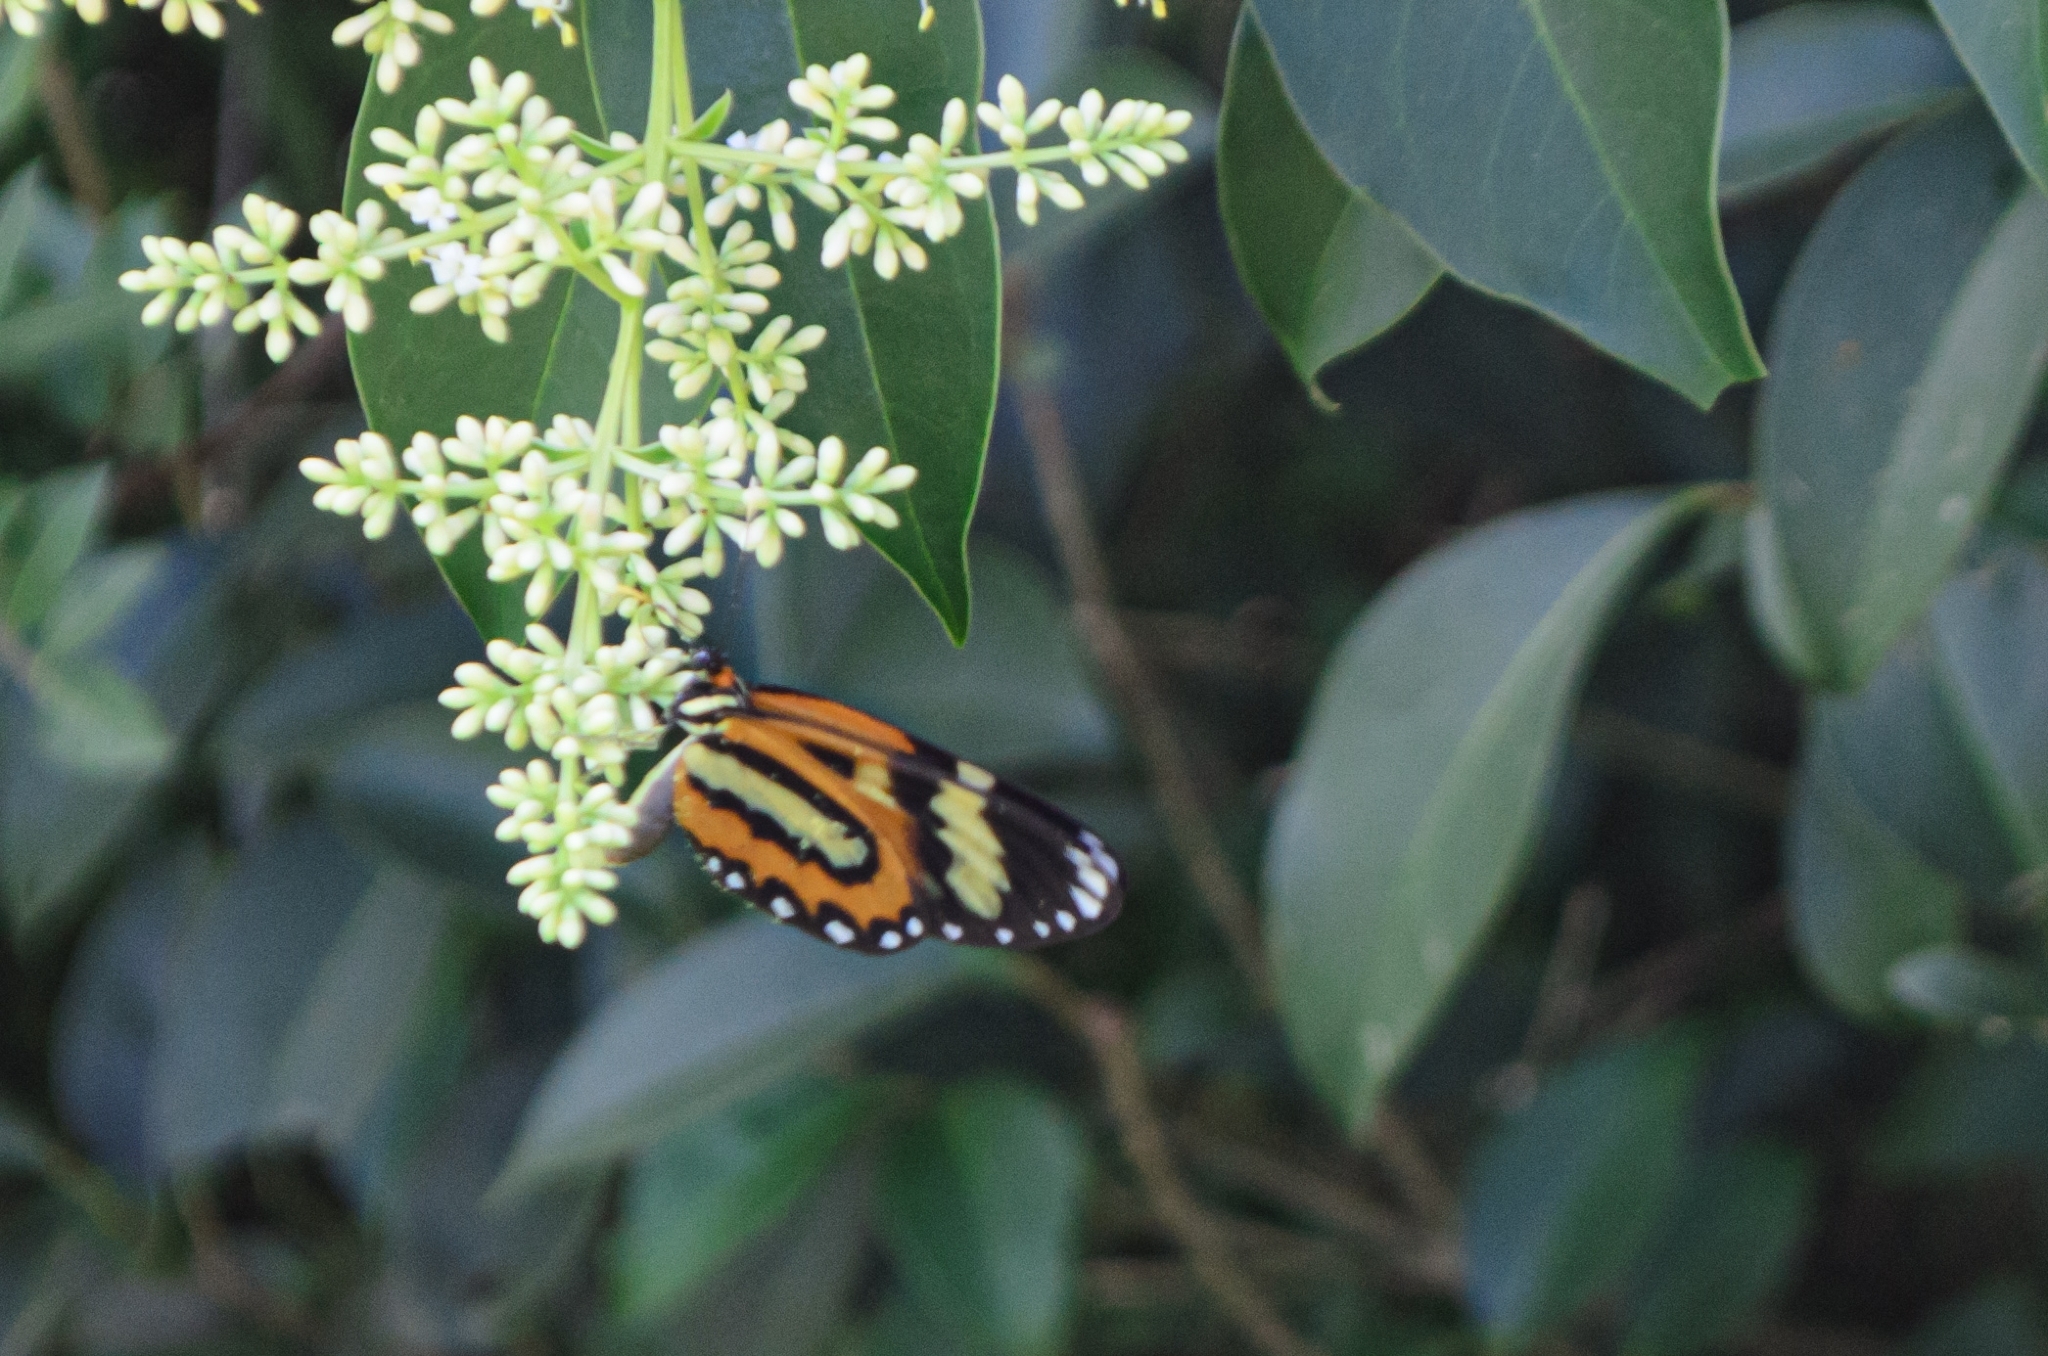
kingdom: Animalia
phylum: Arthropoda
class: Insecta
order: Lepidoptera
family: Nymphalidae
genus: Placidina
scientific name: Placidina euryanassa
